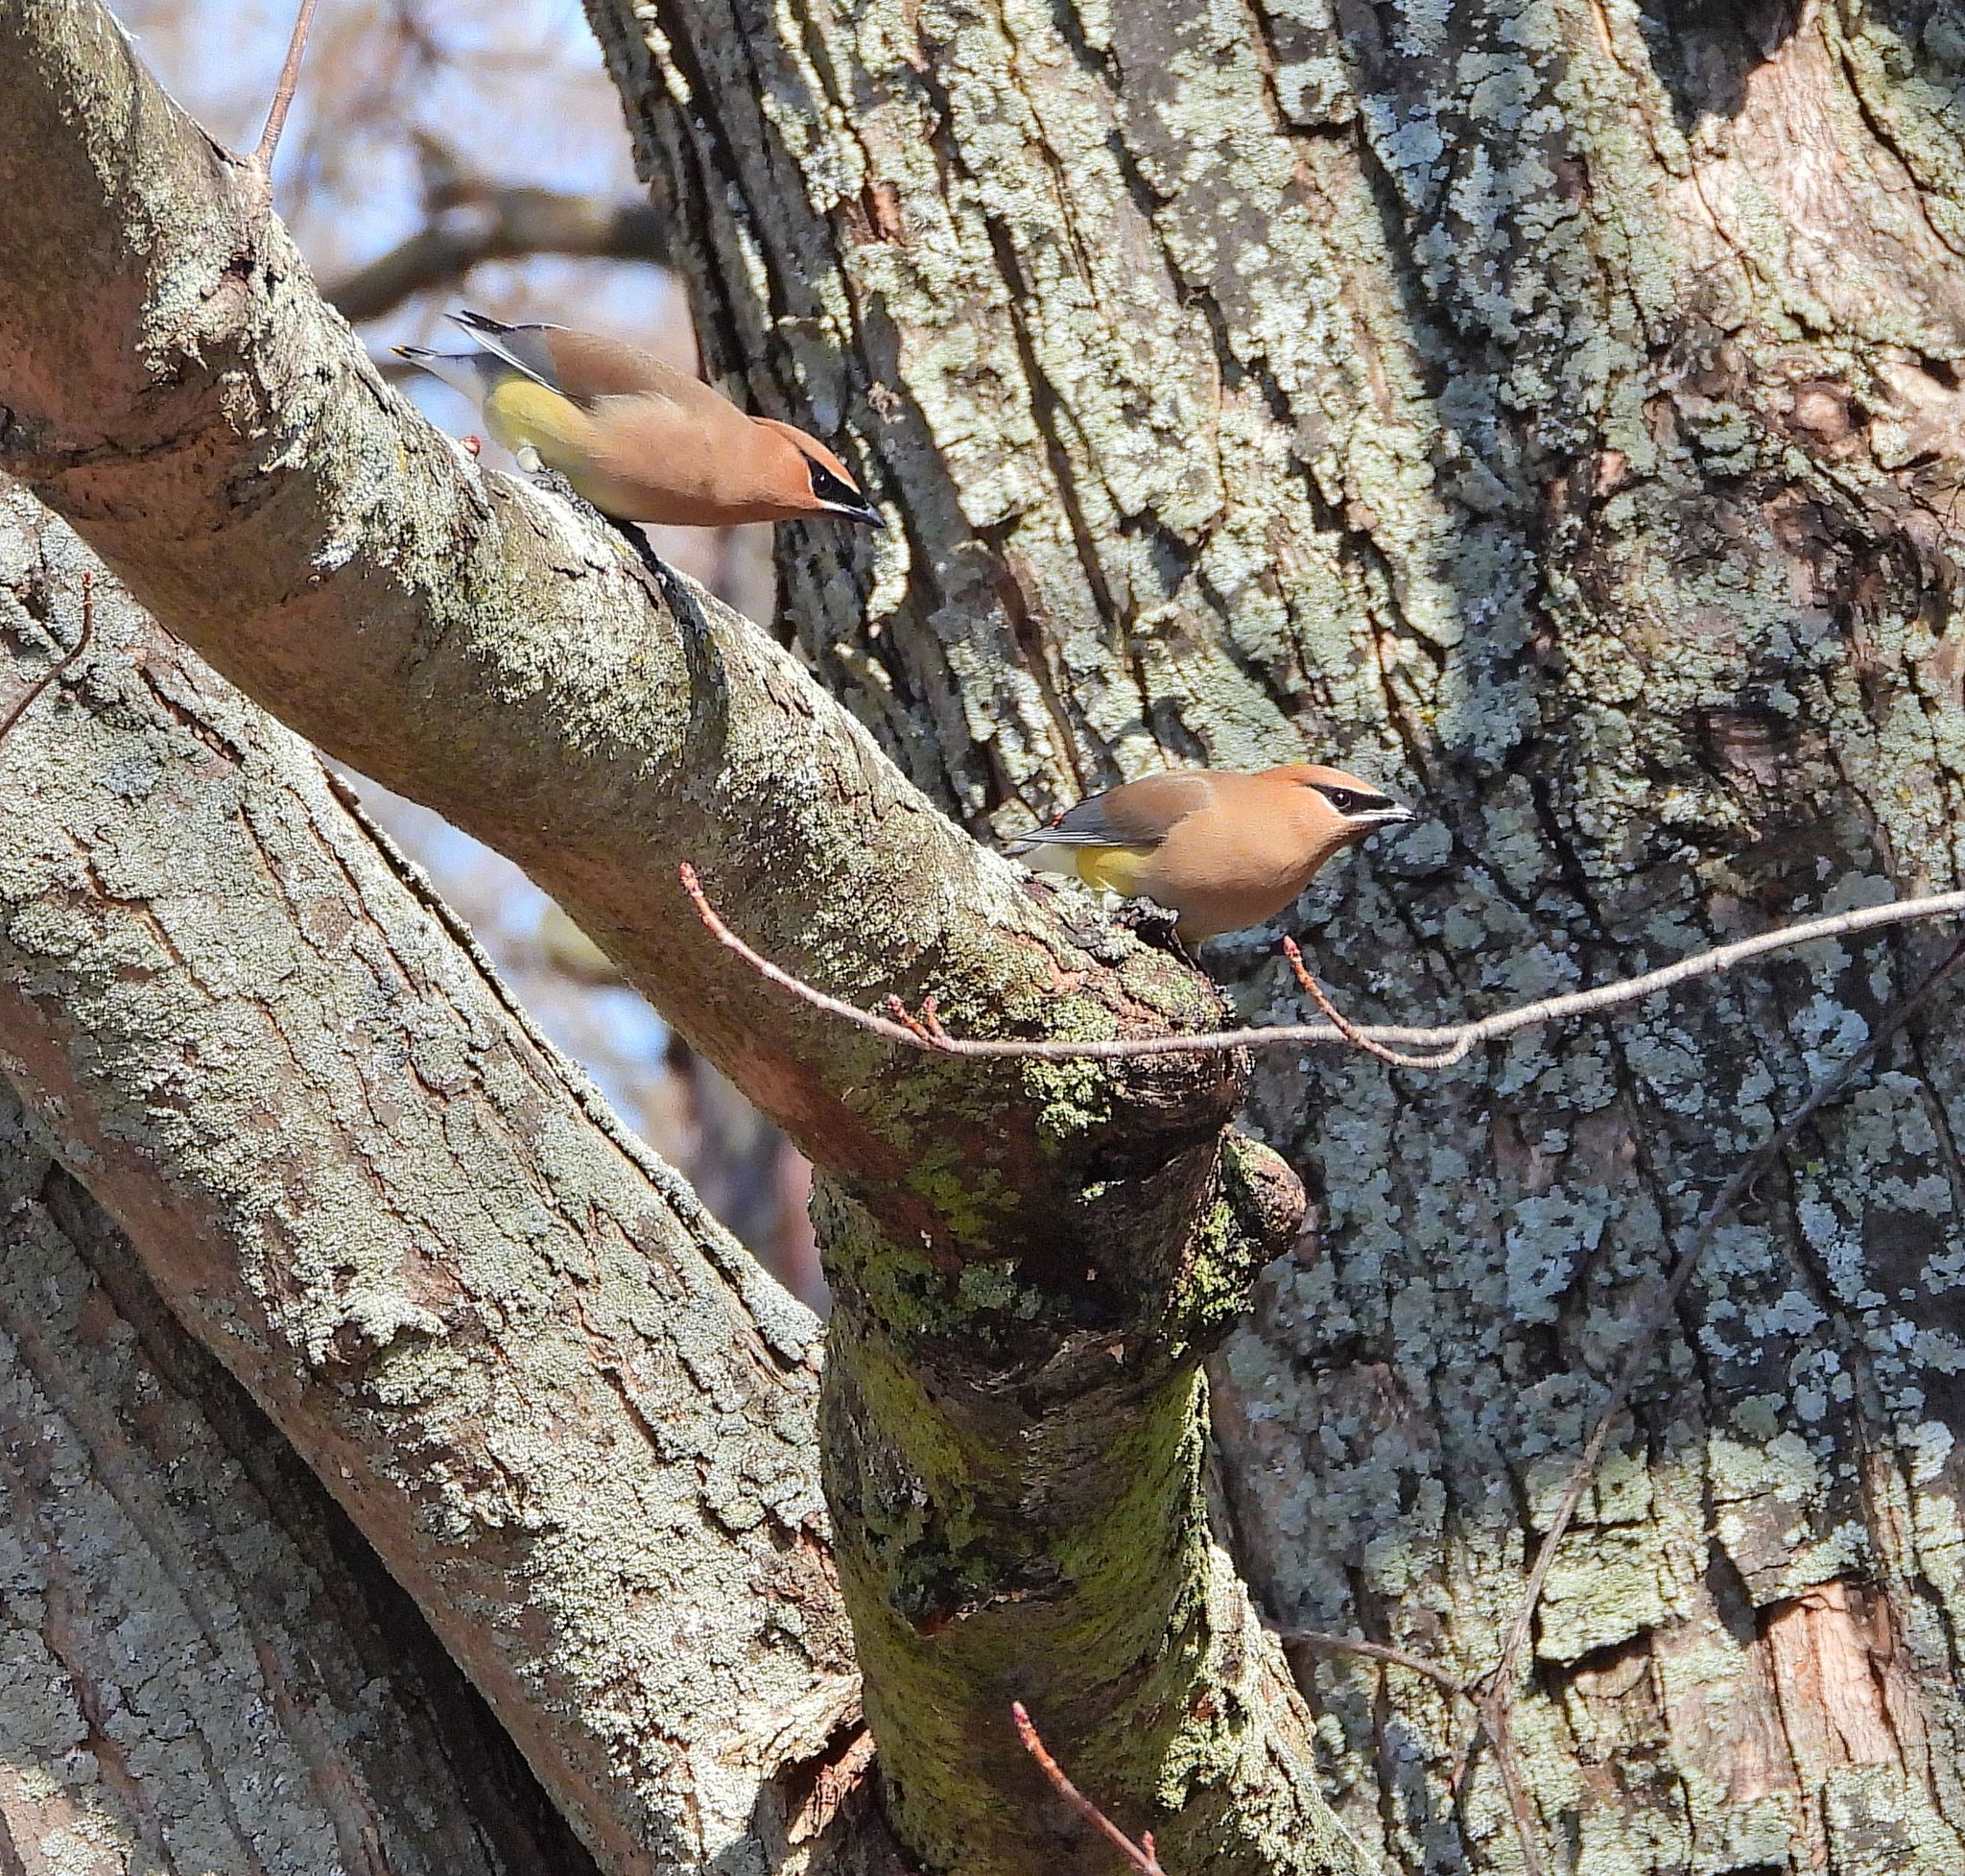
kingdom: Animalia
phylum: Chordata
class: Aves
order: Passeriformes
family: Bombycillidae
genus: Bombycilla
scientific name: Bombycilla cedrorum
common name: Cedar waxwing
